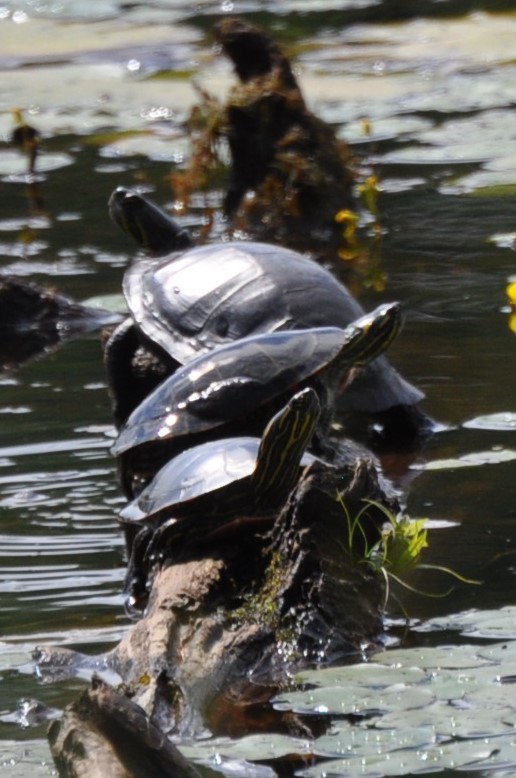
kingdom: Animalia
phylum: Chordata
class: Testudines
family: Emydidae
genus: Chrysemys
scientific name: Chrysemys picta
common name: Painted turtle
